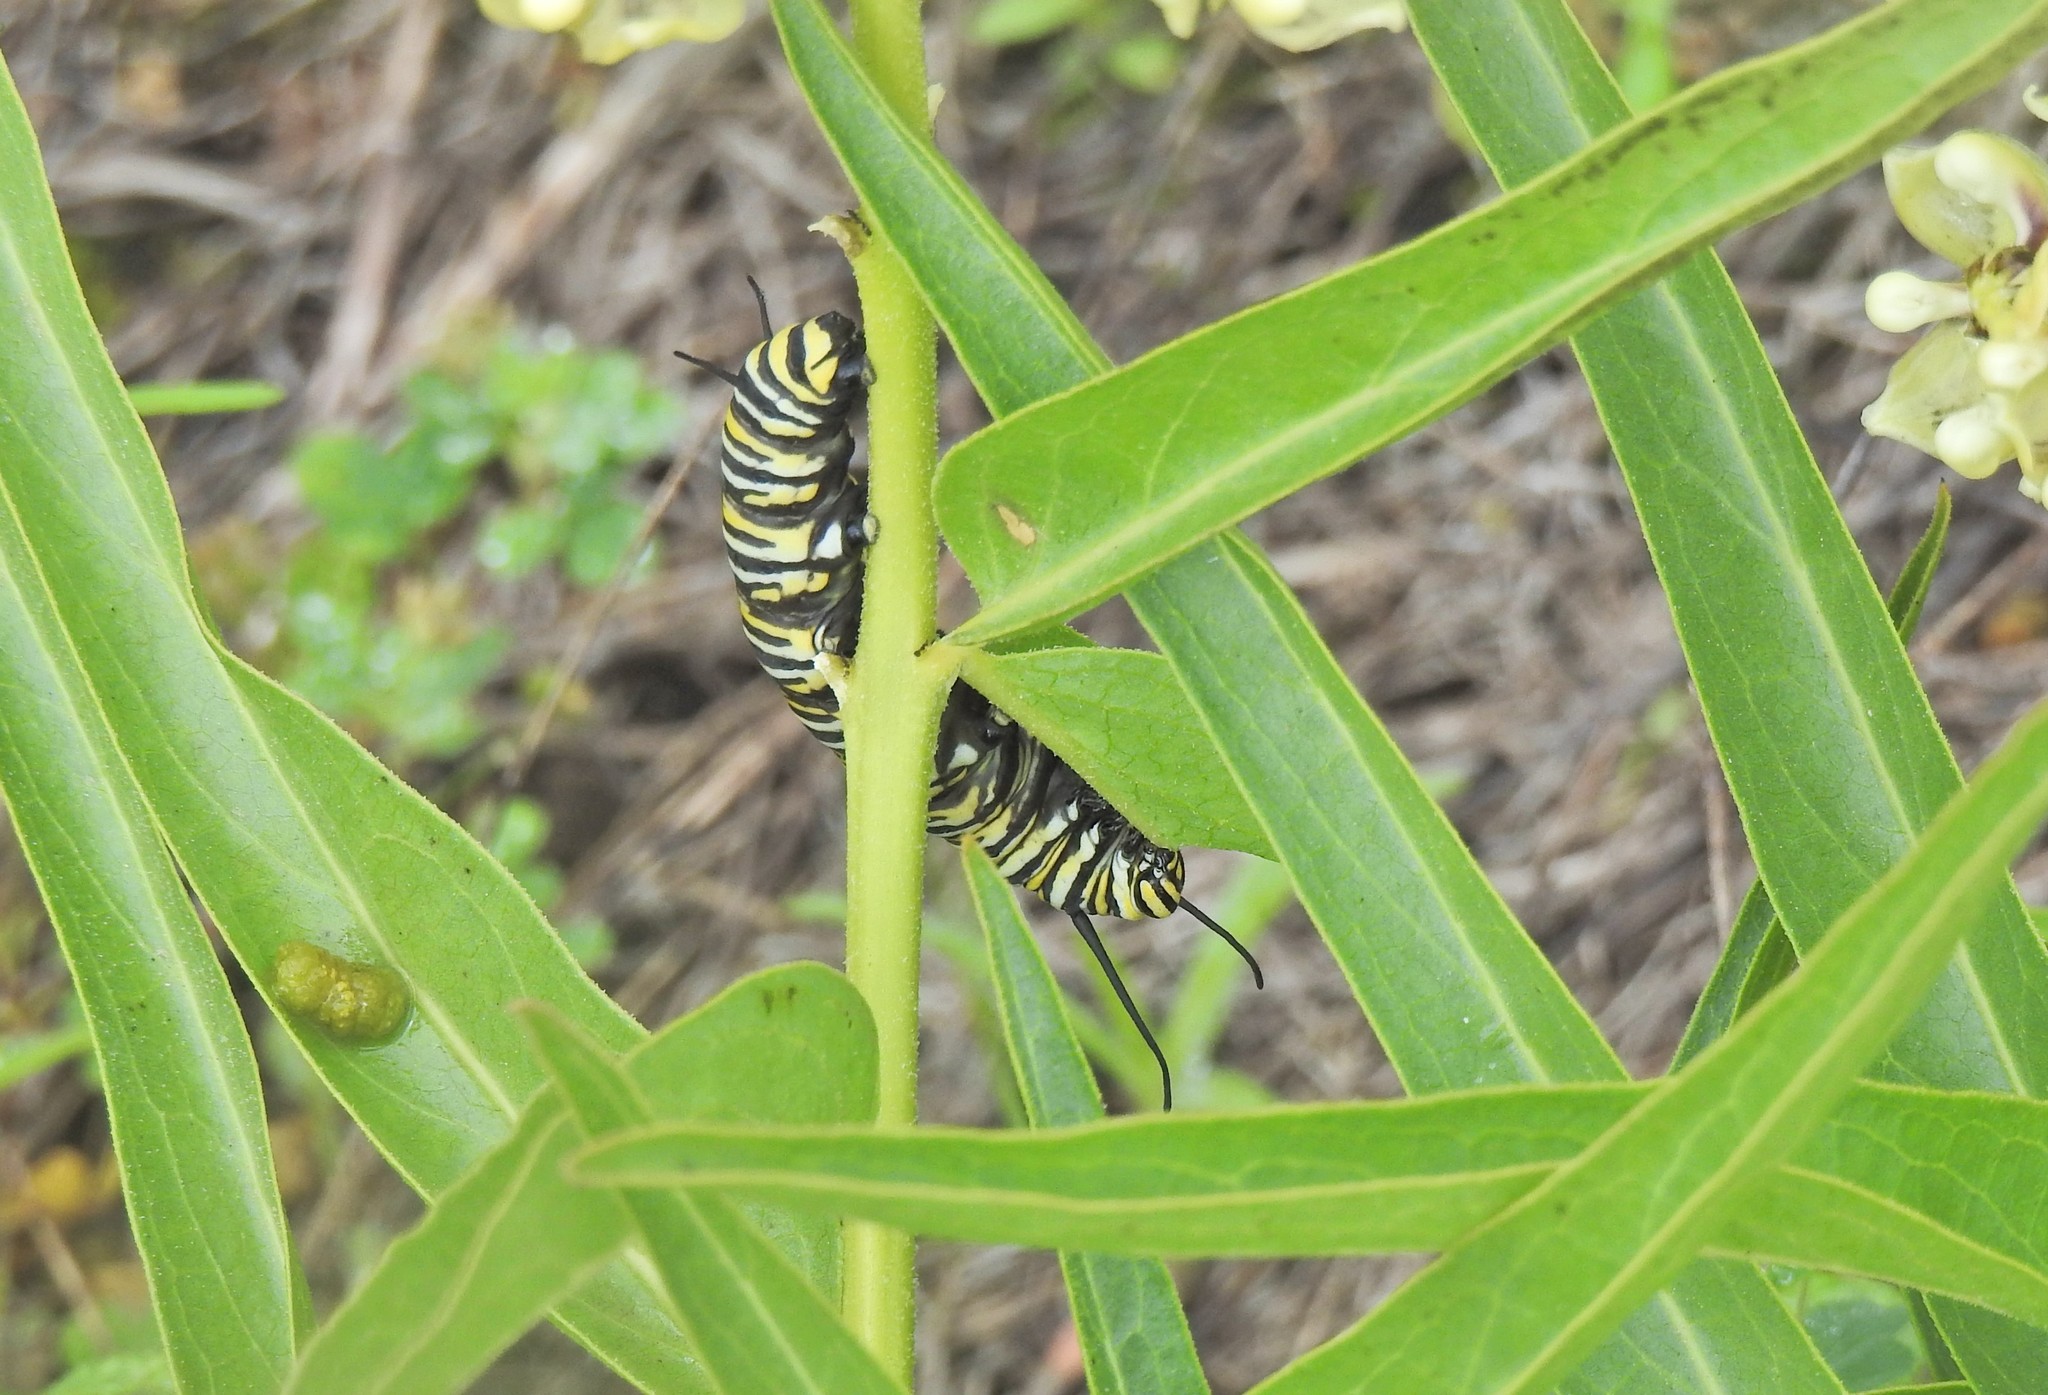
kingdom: Animalia
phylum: Arthropoda
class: Insecta
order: Lepidoptera
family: Nymphalidae
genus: Danaus
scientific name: Danaus plexippus
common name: Monarch
